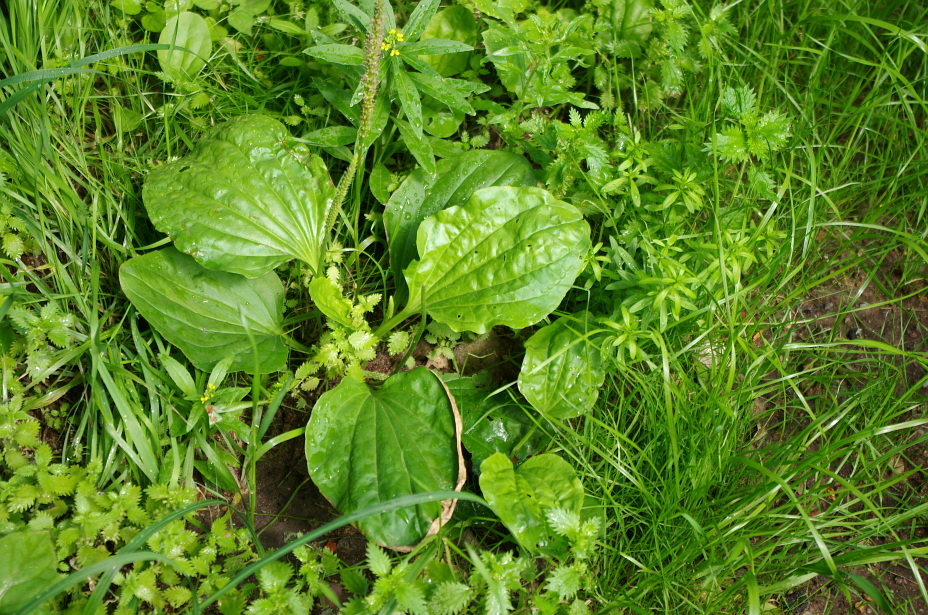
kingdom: Plantae
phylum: Tracheophyta
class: Magnoliopsida
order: Lamiales
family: Plantaginaceae
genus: Plantago
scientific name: Plantago major
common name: Common plantain
